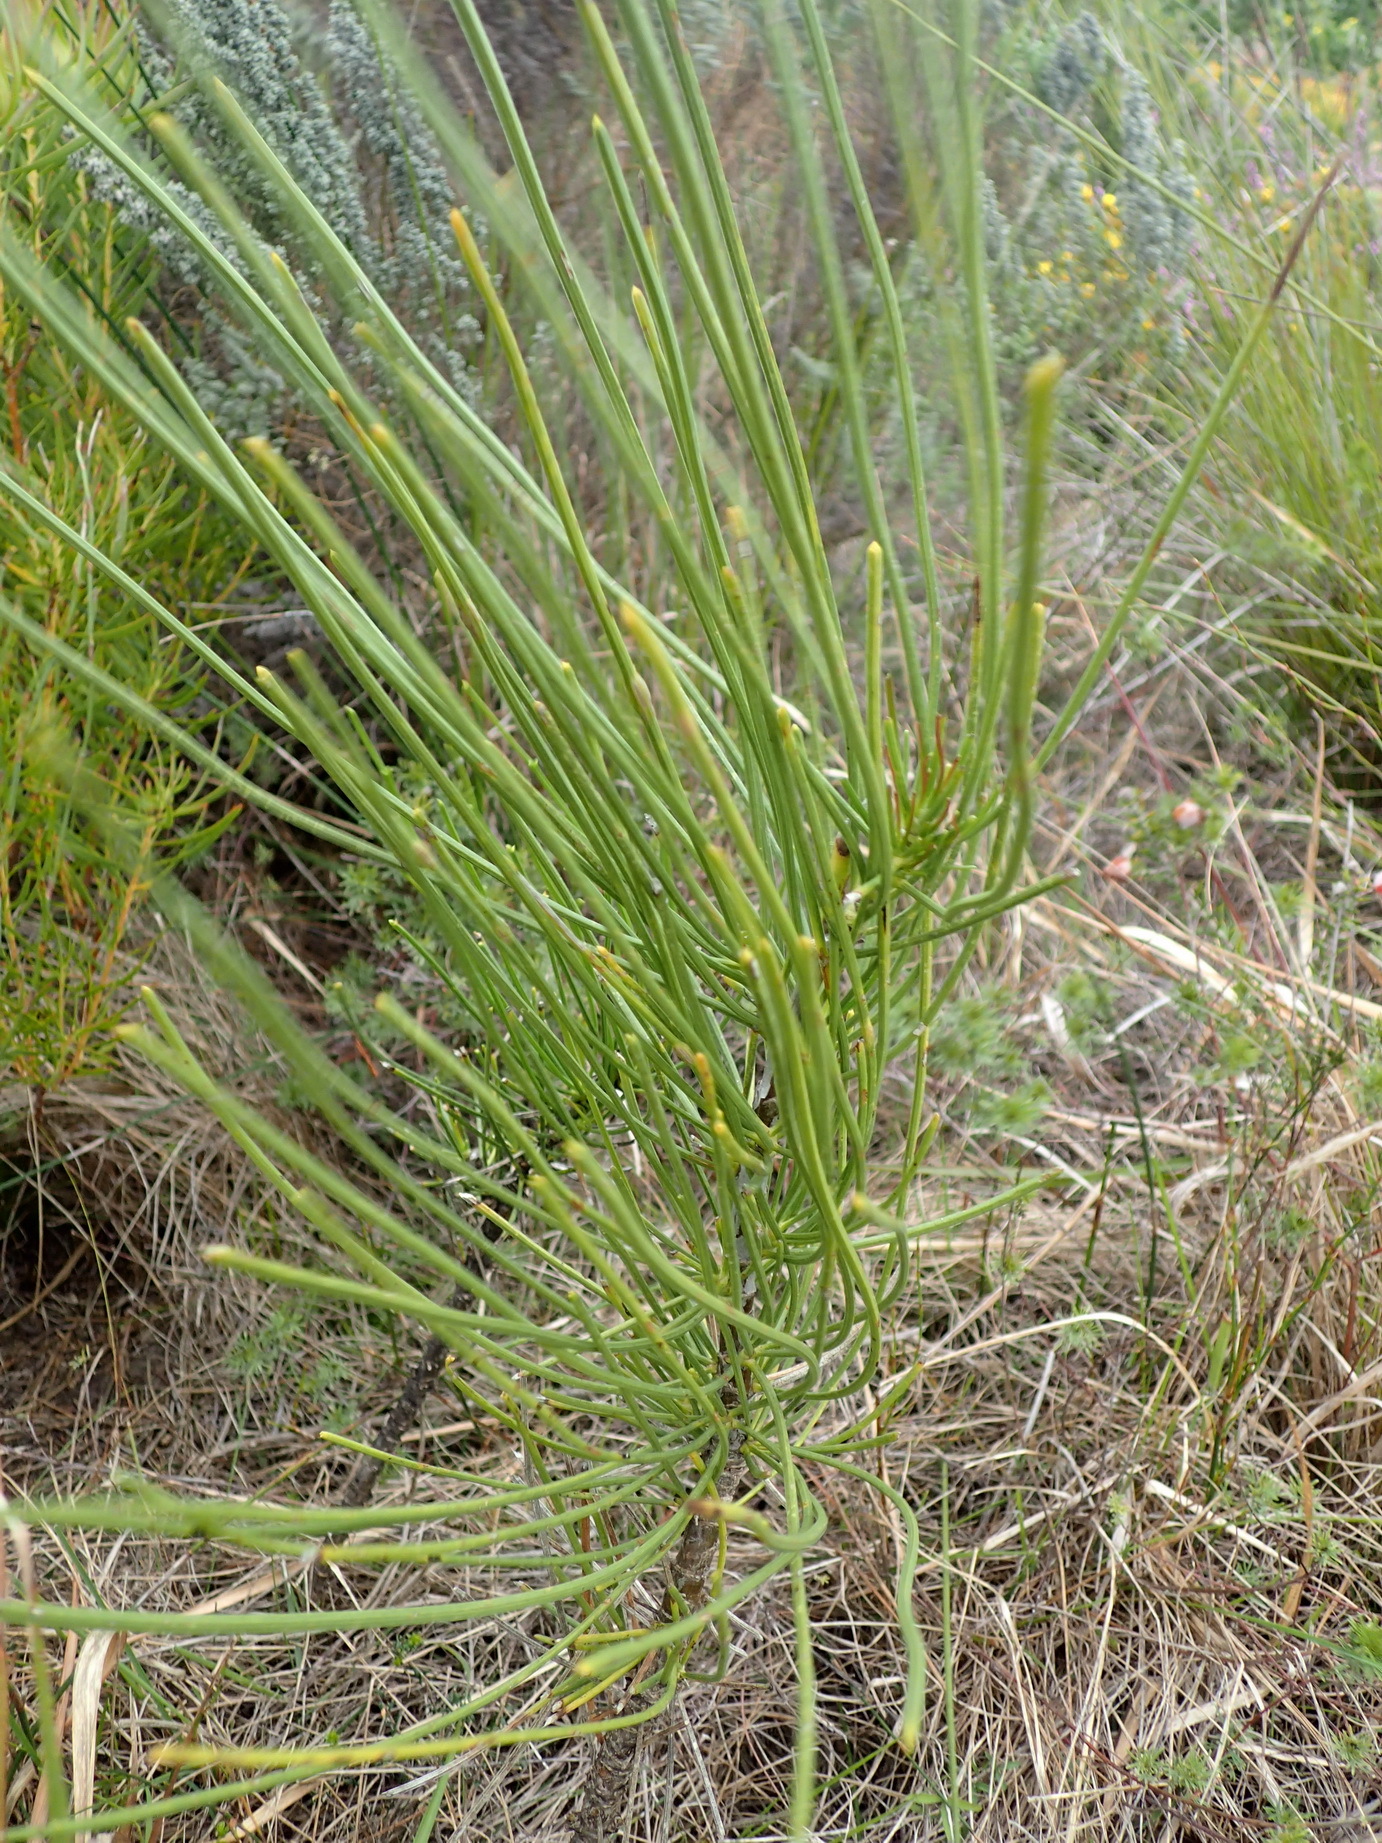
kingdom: Plantae
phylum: Tracheophyta
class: Magnoliopsida
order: Apiales
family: Apiaceae
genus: Anginon
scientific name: Anginon difforme
